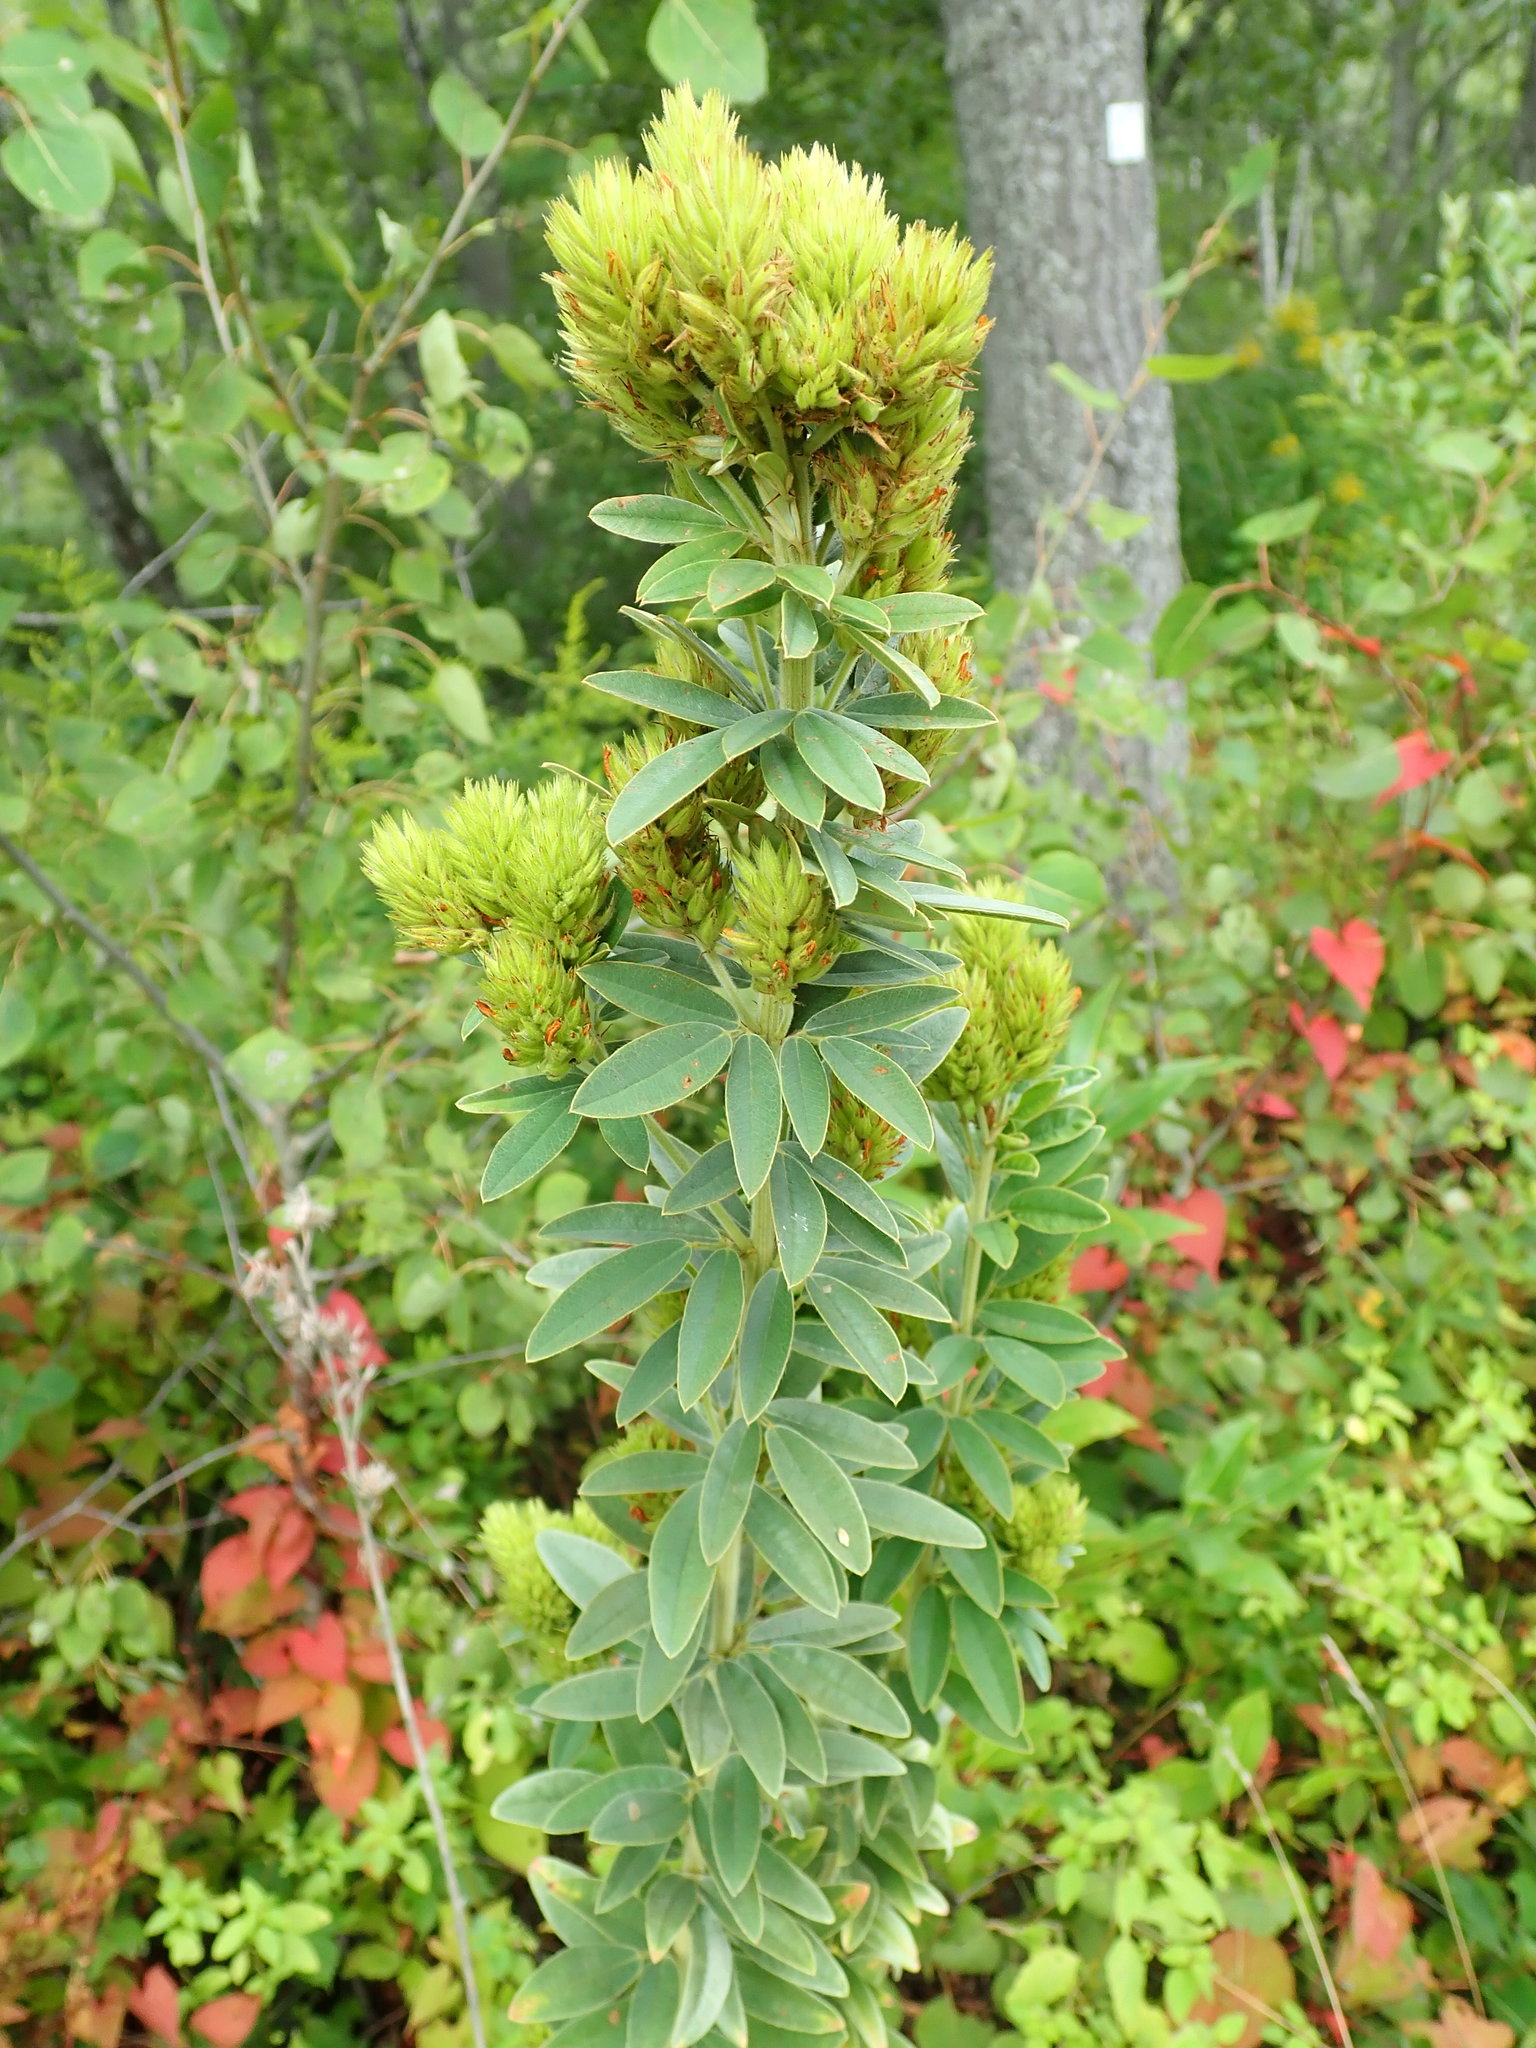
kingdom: Plantae
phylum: Tracheophyta
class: Magnoliopsida
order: Fabales
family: Fabaceae
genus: Lespedeza
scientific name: Lespedeza capitata
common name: Dusty clover
